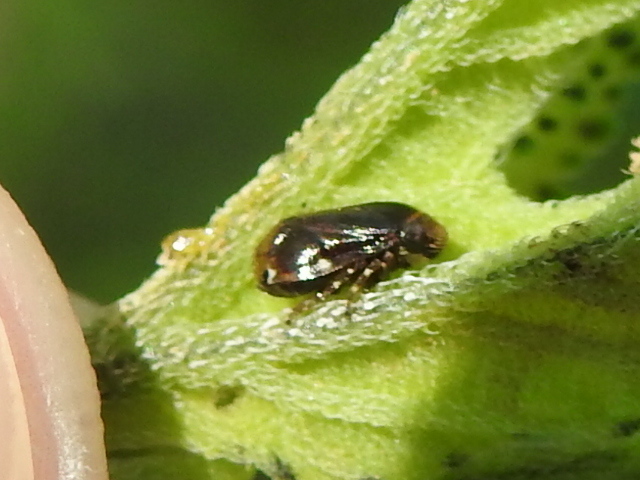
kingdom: Animalia
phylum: Arthropoda
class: Insecta
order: Hemiptera
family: Clastopteridae
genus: Clastoptera
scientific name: Clastoptera xanthocephala
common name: Sunflower spittlebug
